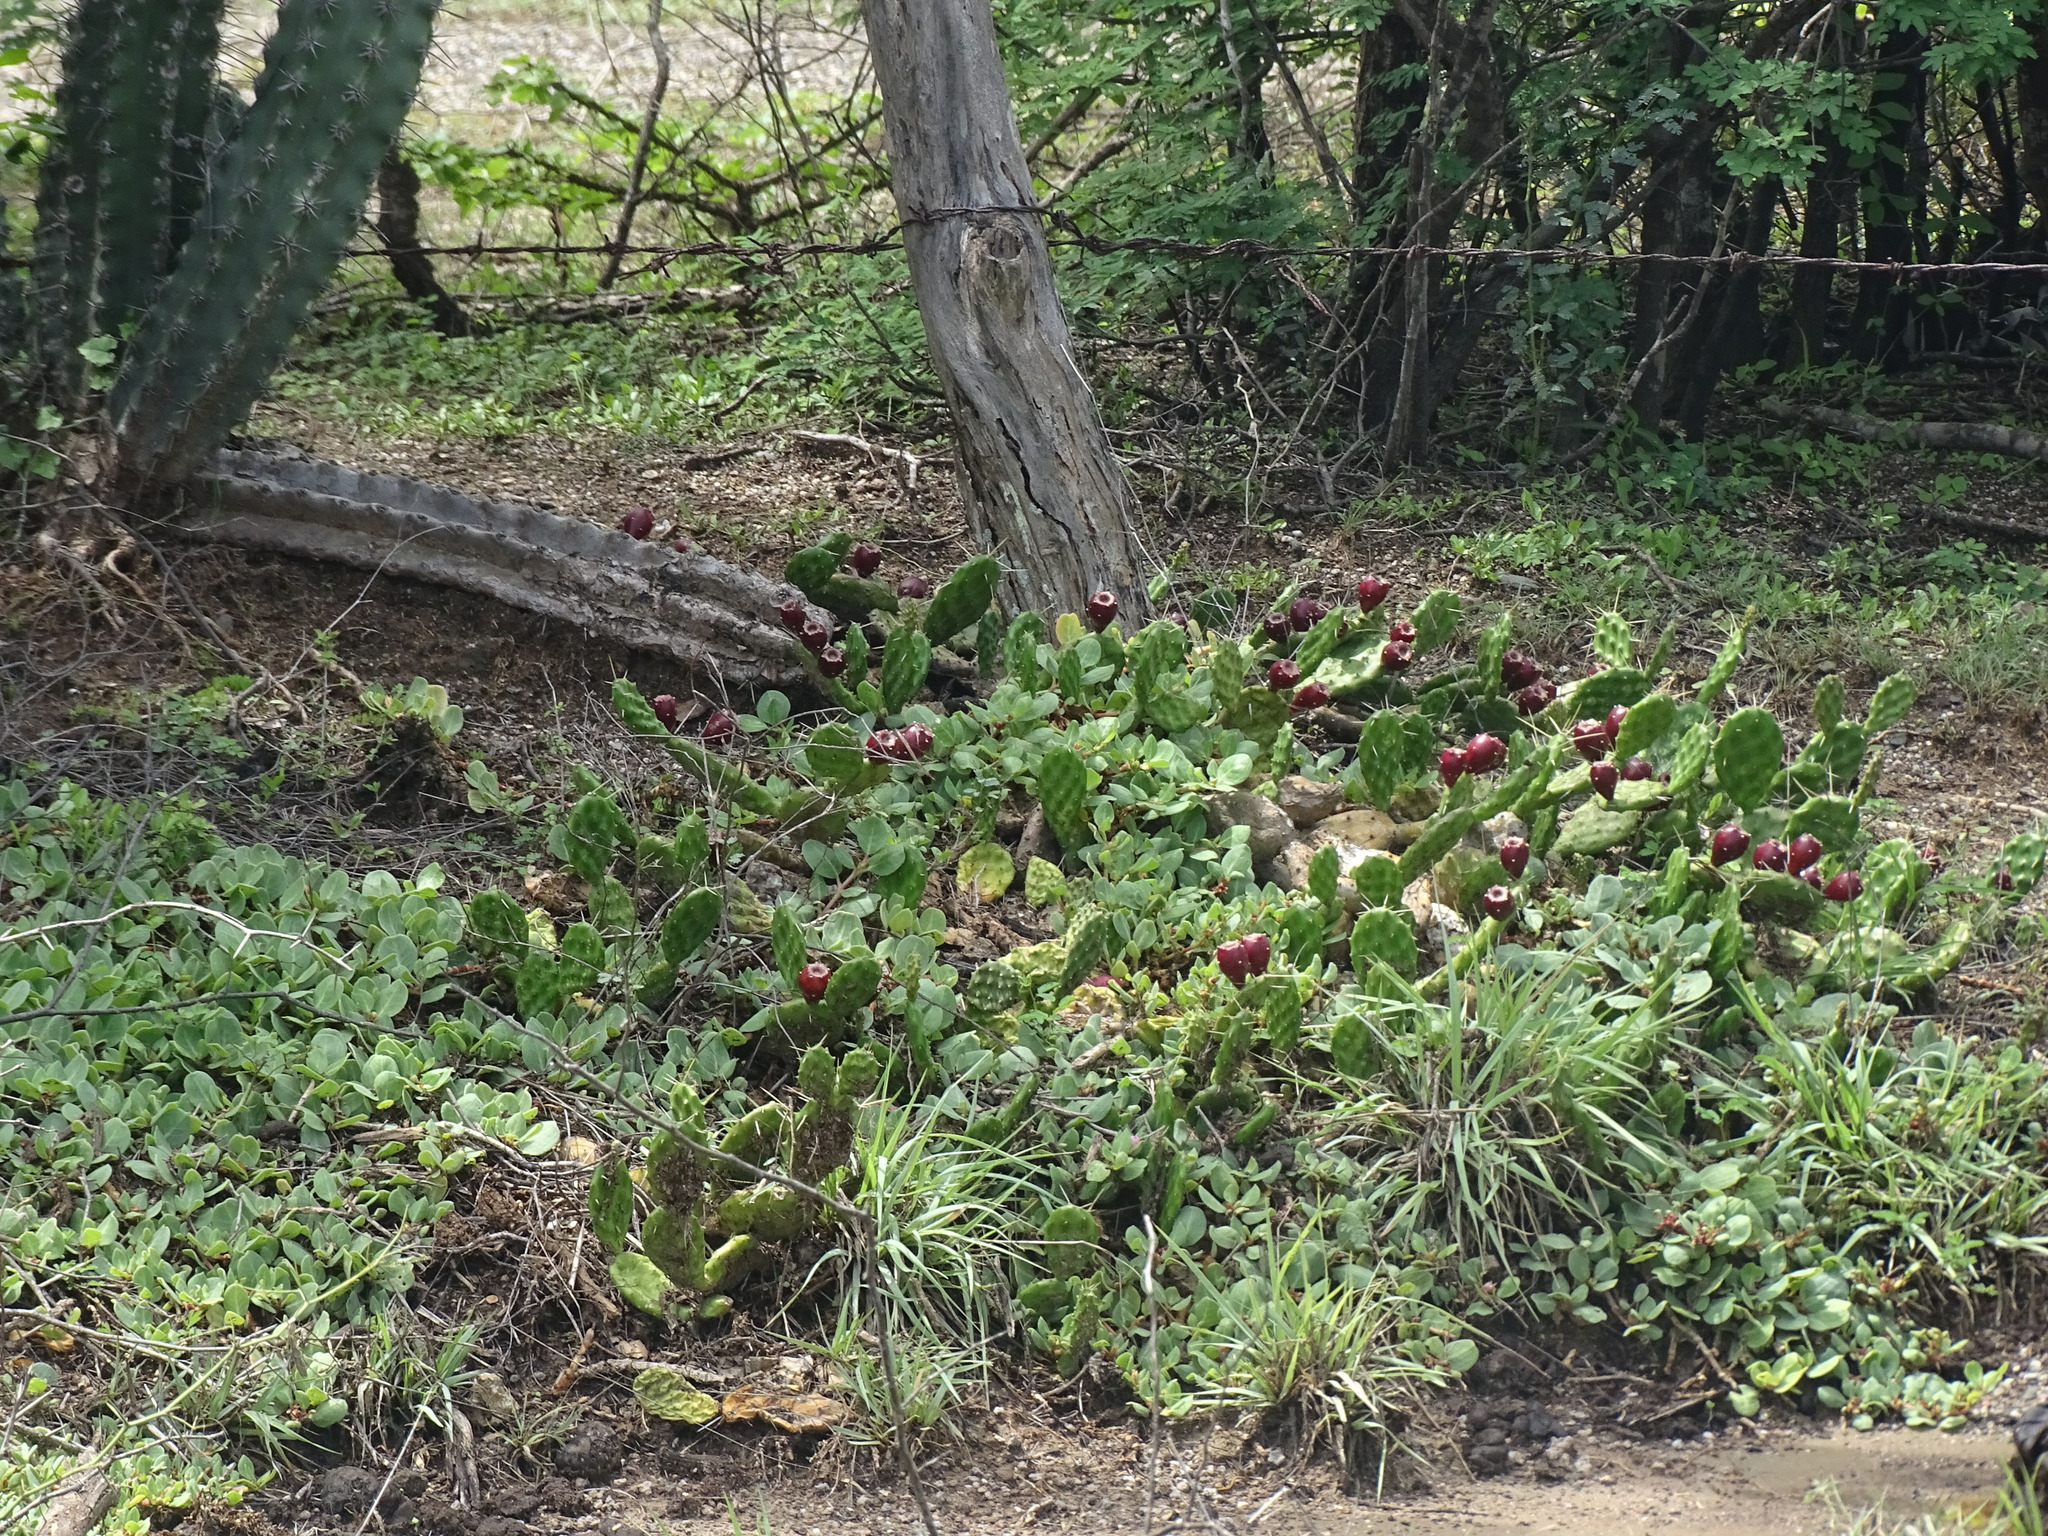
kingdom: Plantae
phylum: Tracheophyta
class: Magnoliopsida
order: Caryophyllales
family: Cactaceae
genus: Opuntia
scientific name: Opuntia decumbens
